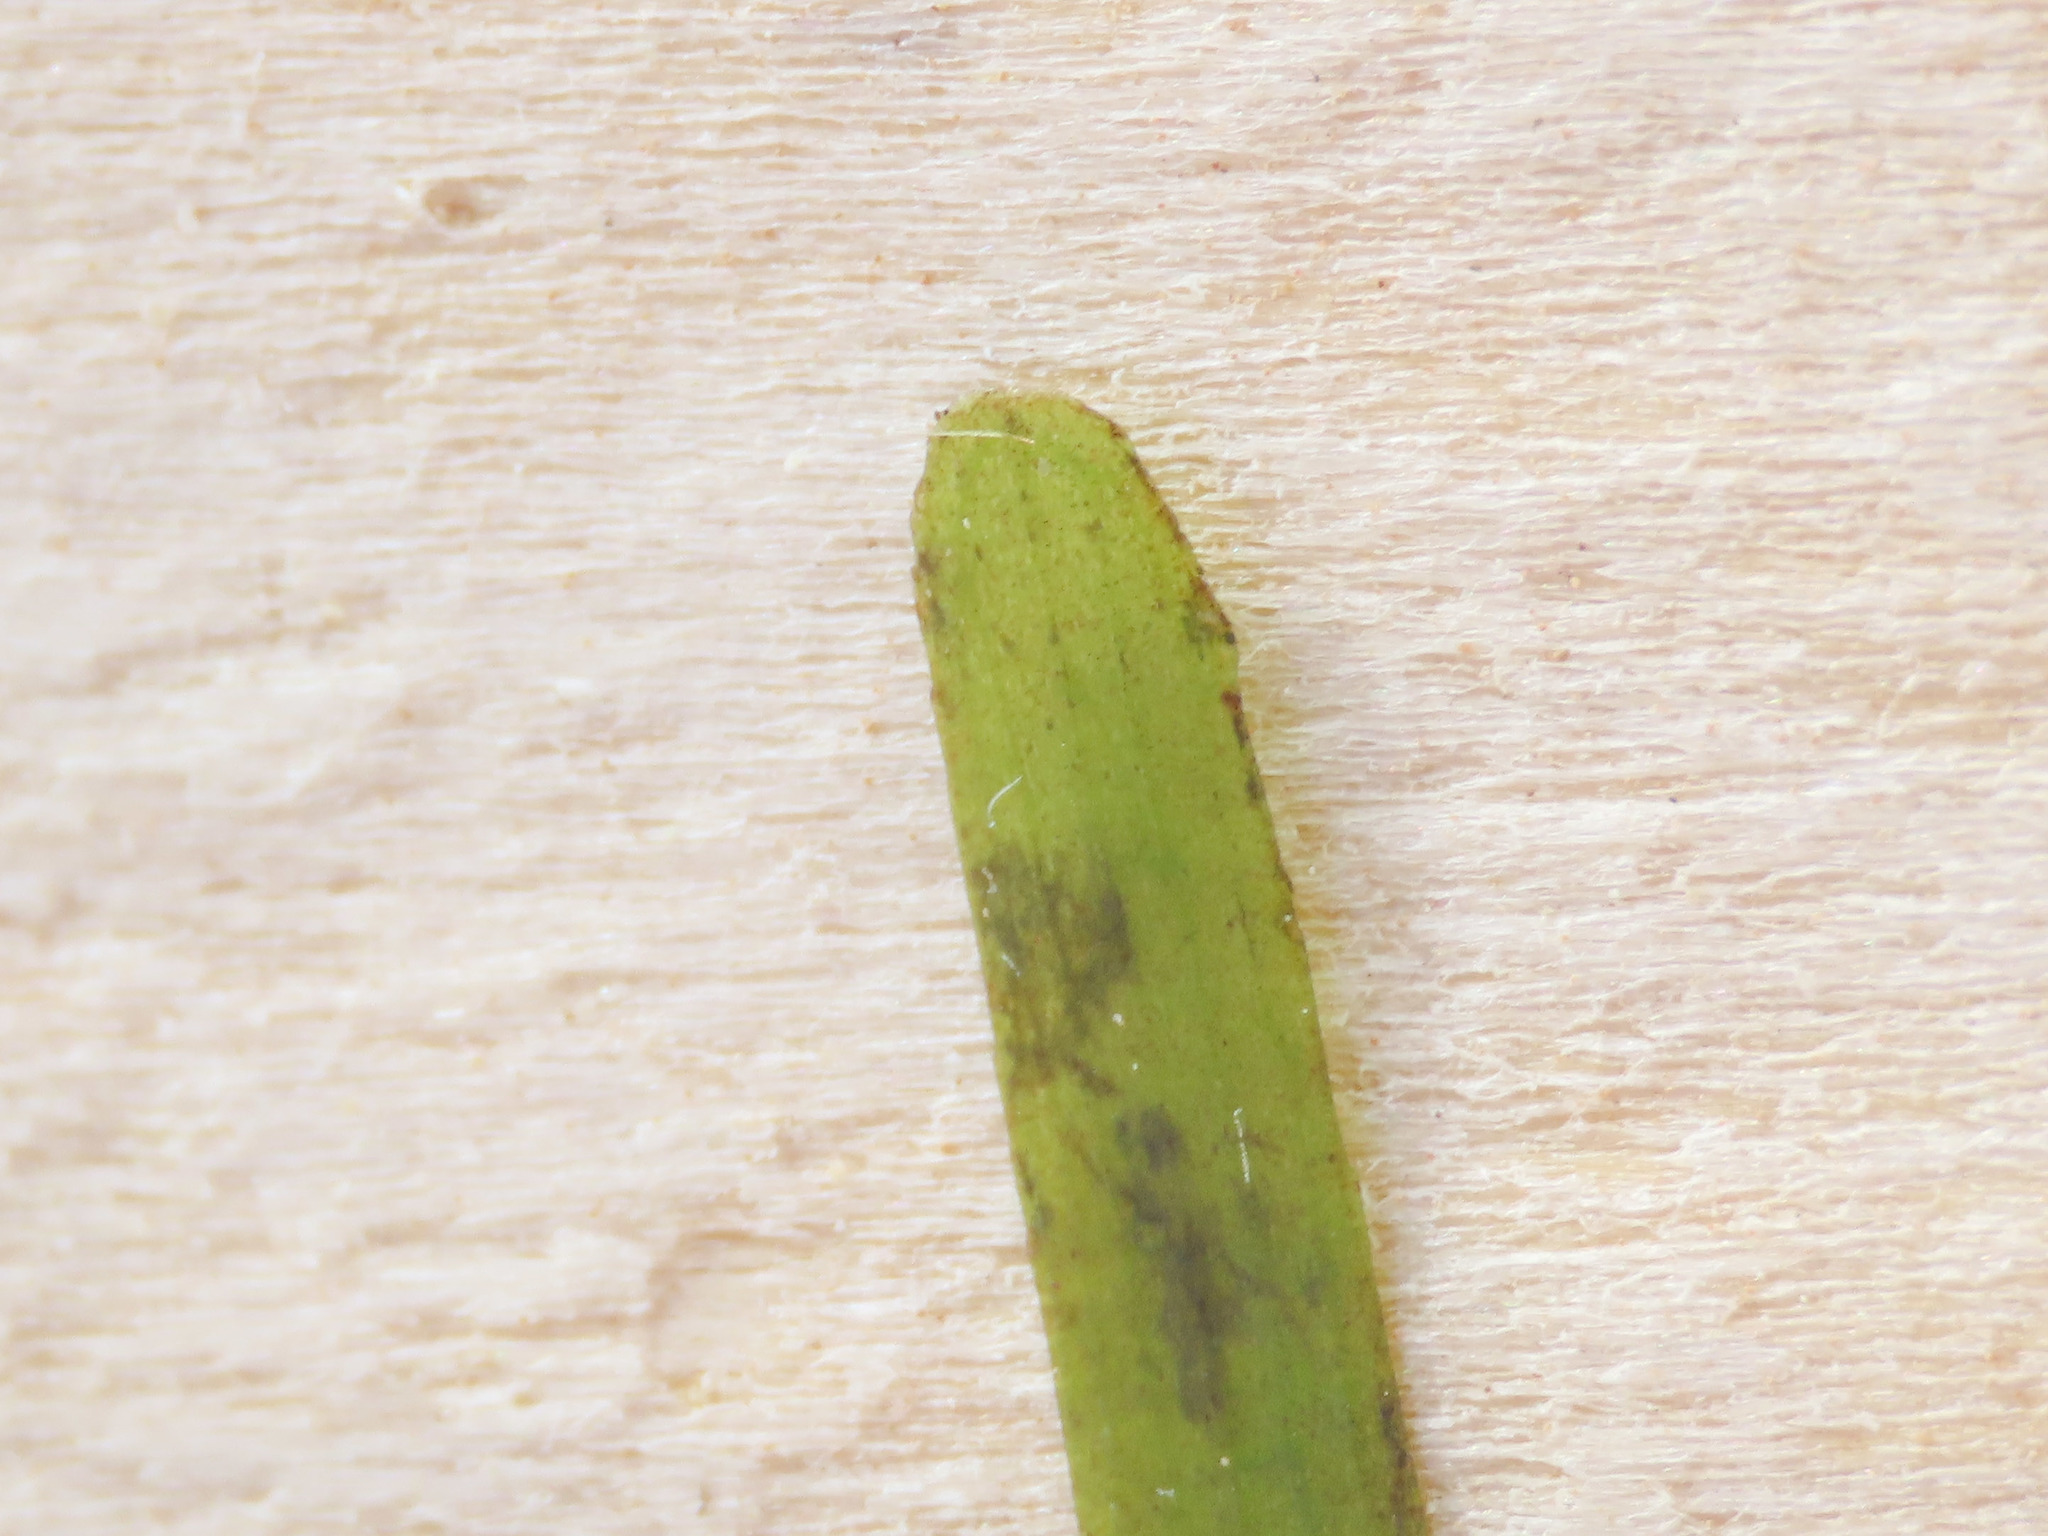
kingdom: Plantae
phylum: Tracheophyta
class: Liliopsida
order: Alismatales
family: Cymodoceaceae
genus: Cymodocea
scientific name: Cymodocea nodosa
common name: Slender seagrass
